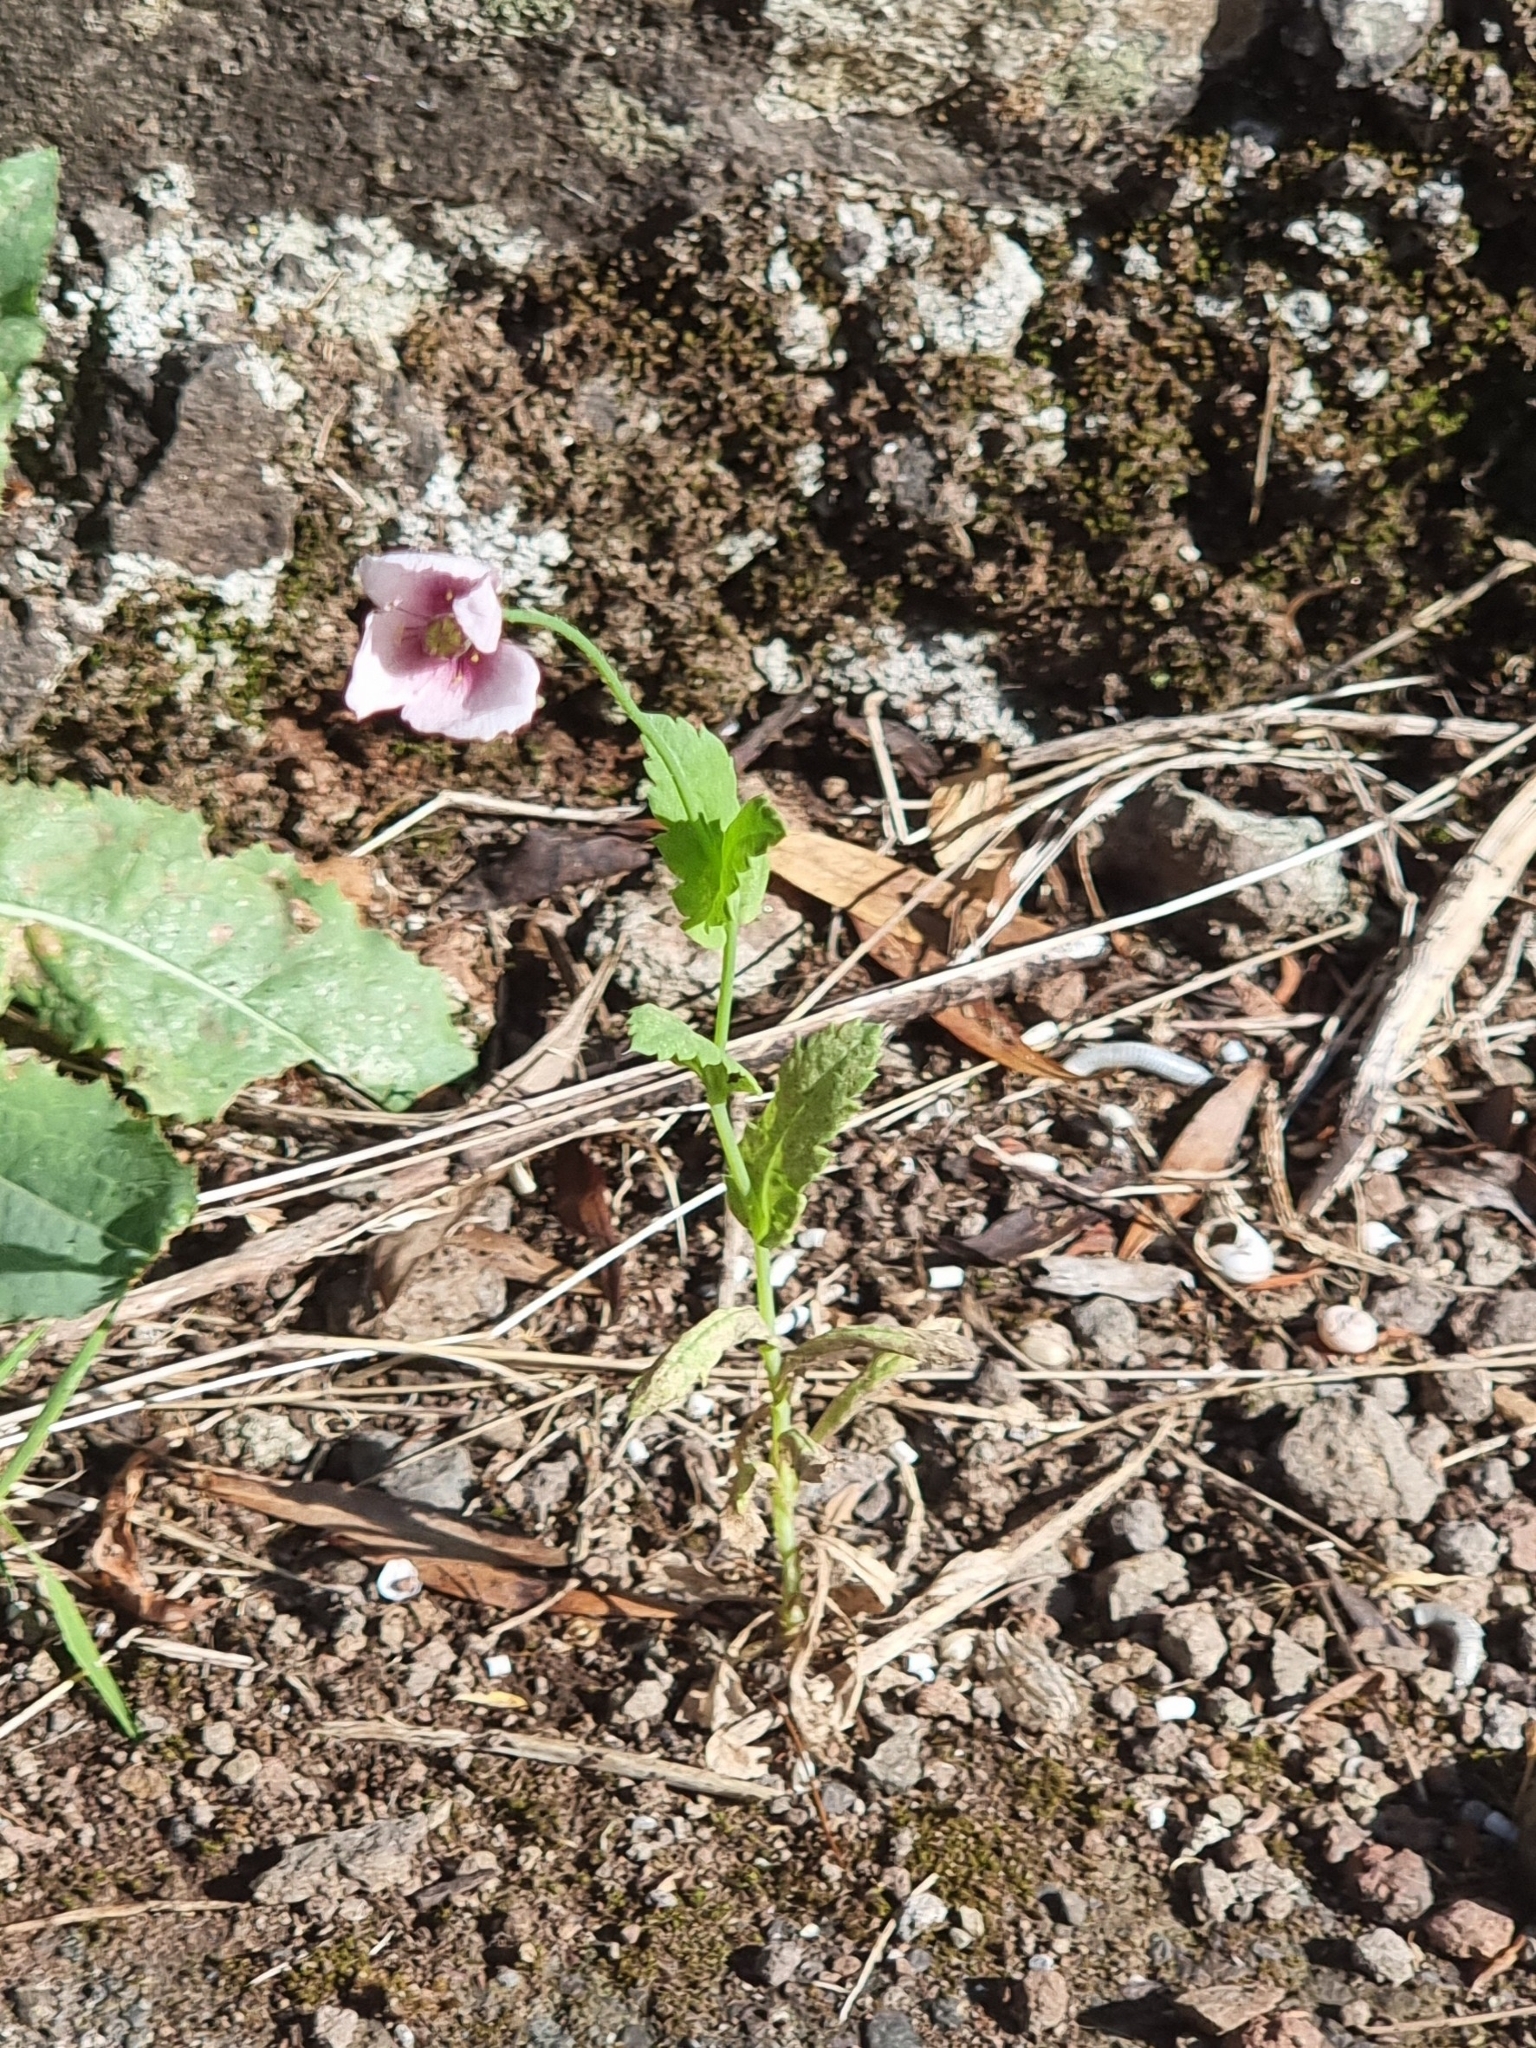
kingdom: Plantae
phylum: Tracheophyta
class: Magnoliopsida
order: Ranunculales
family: Papaveraceae
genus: Papaver
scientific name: Papaver somniferum
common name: Opium poppy
